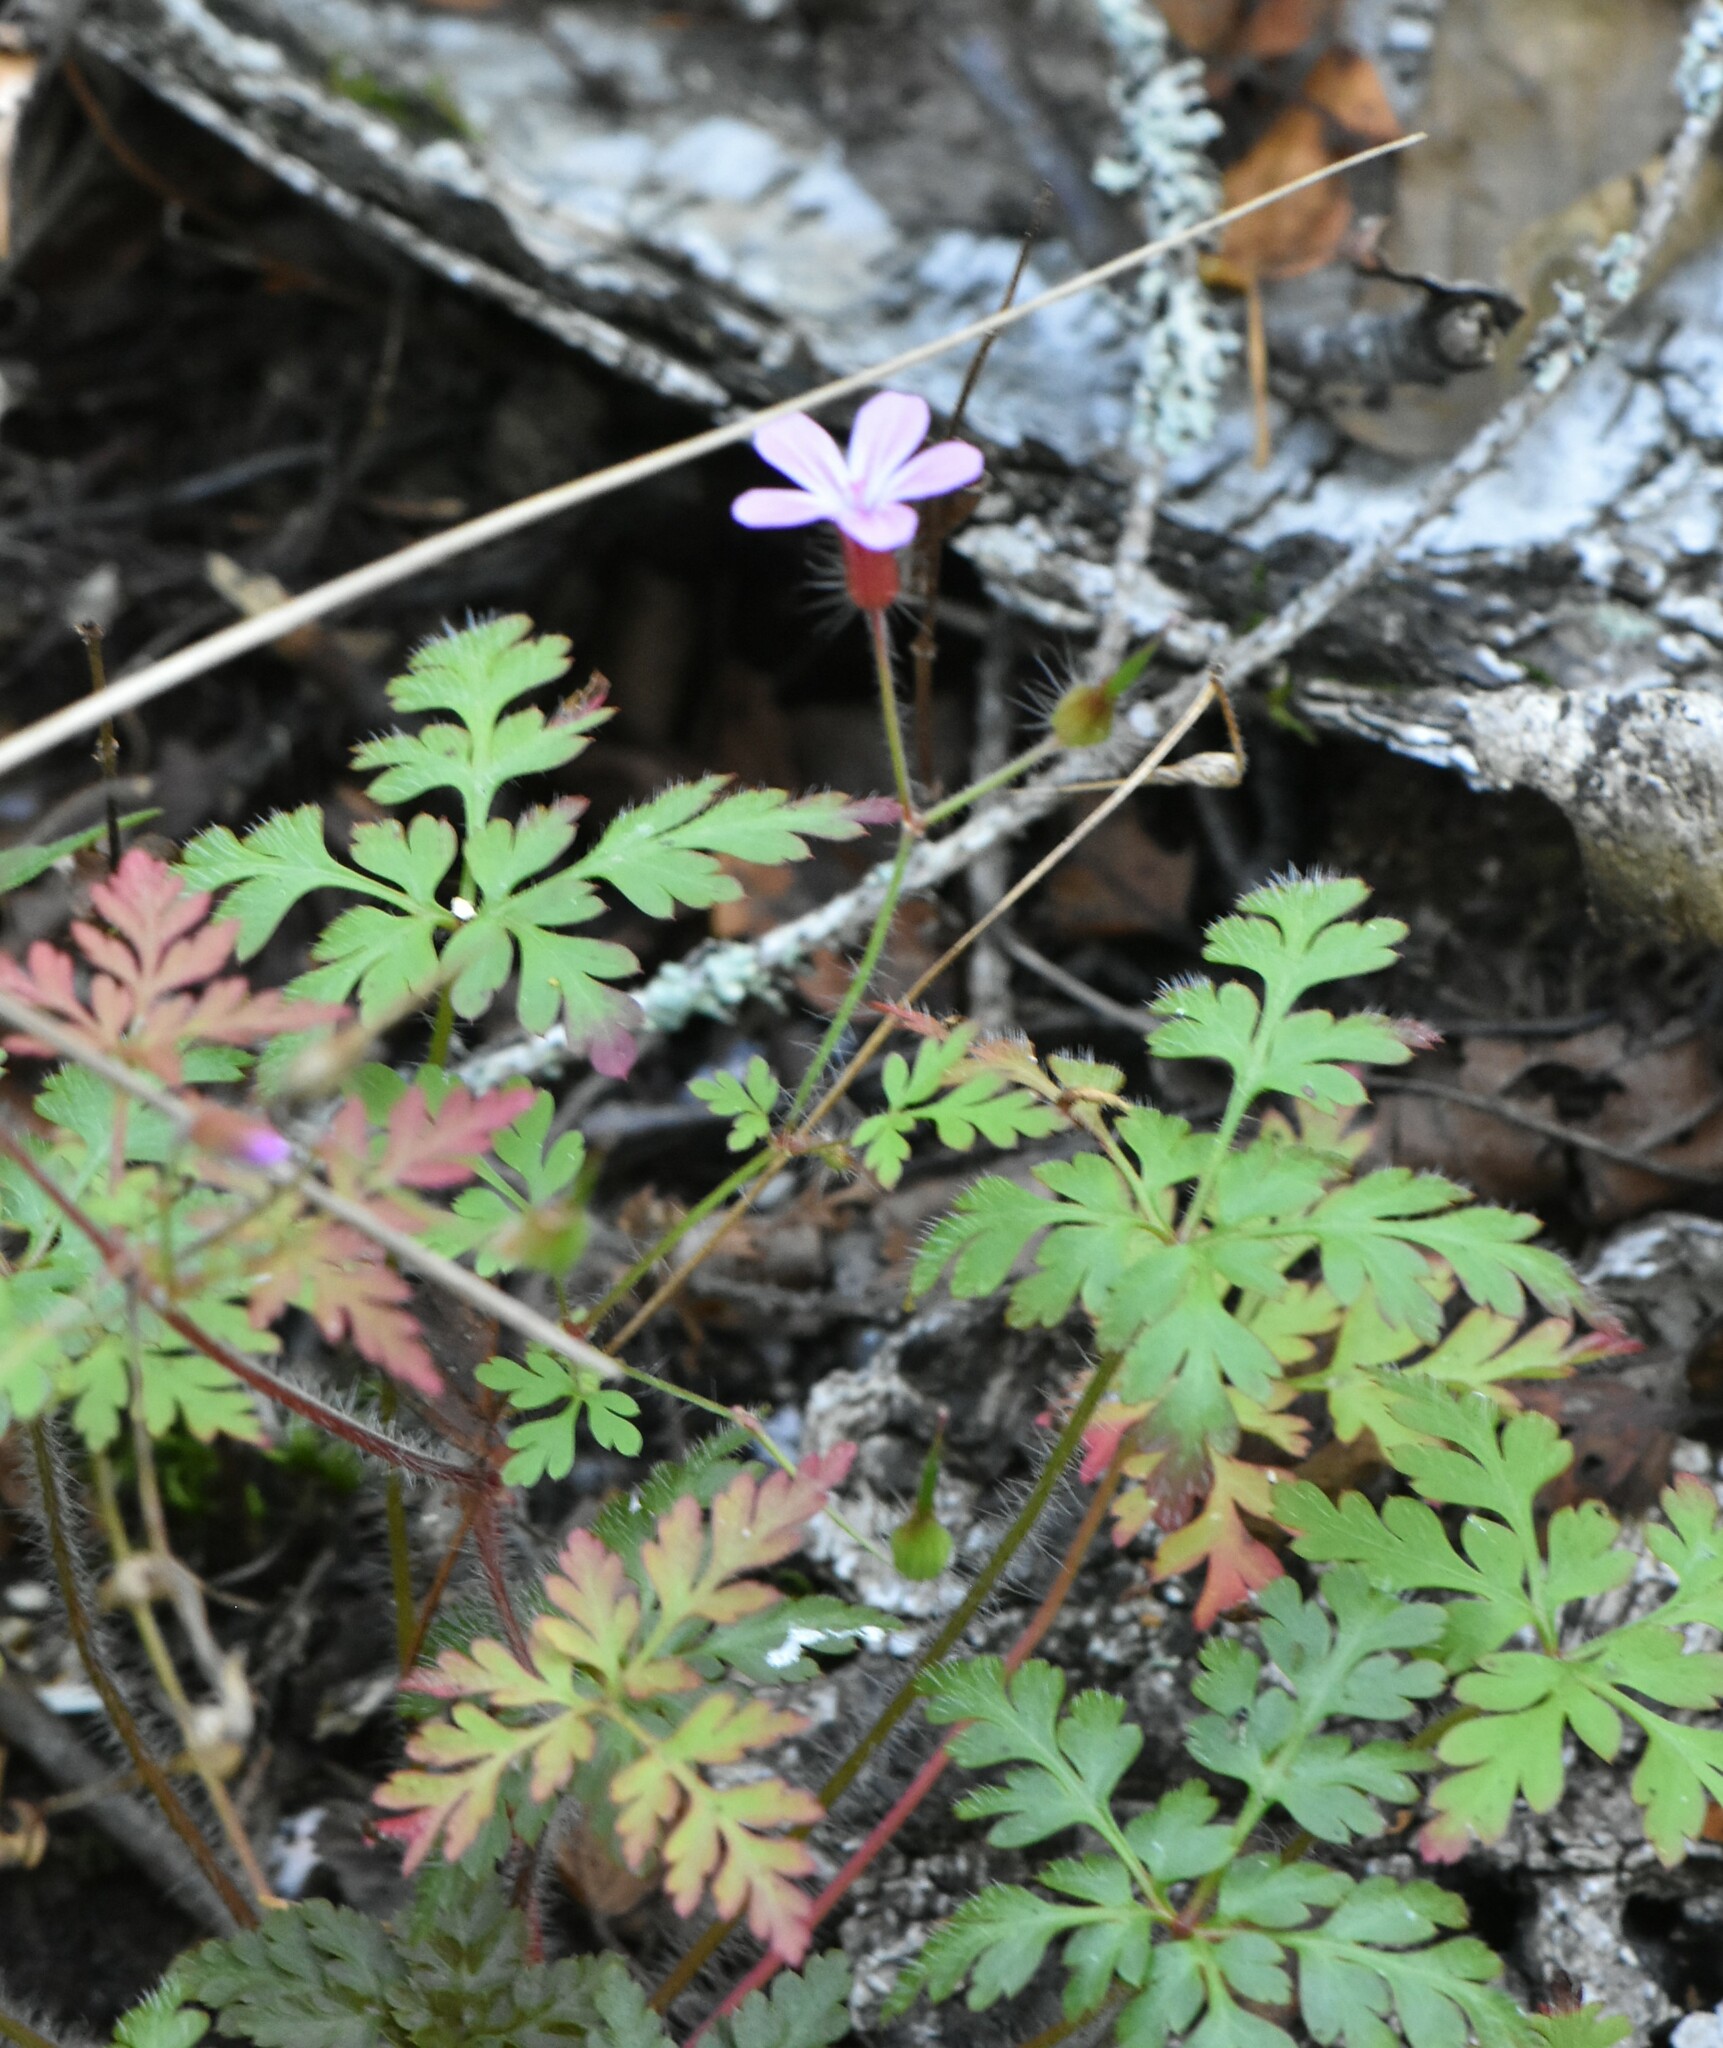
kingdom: Plantae
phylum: Tracheophyta
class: Magnoliopsida
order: Geraniales
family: Geraniaceae
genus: Geranium
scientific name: Geranium robertianum
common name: Herb-robert
